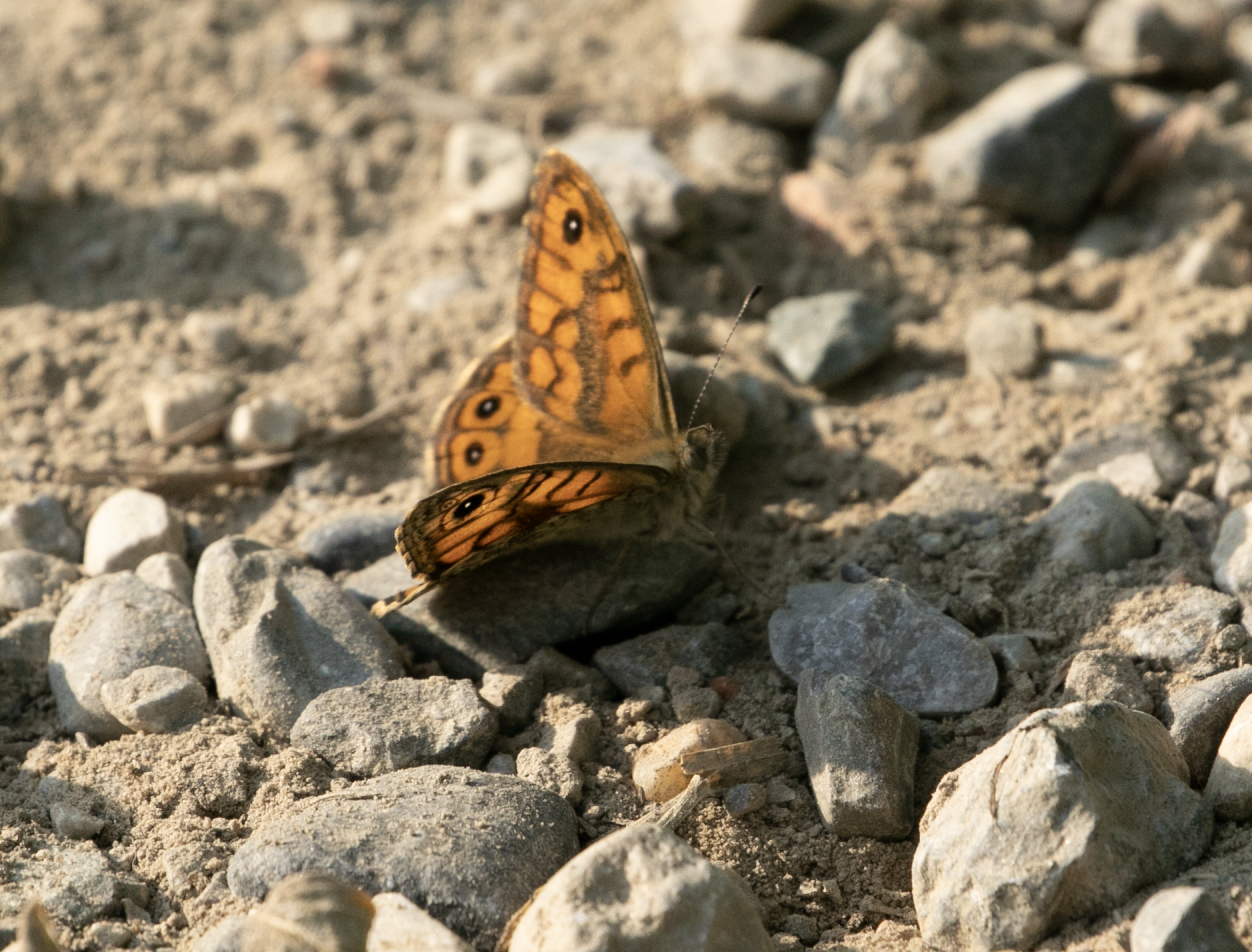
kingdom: Animalia
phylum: Arthropoda
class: Insecta
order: Lepidoptera
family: Nymphalidae
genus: Pararge
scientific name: Pararge Lasiommata megera
